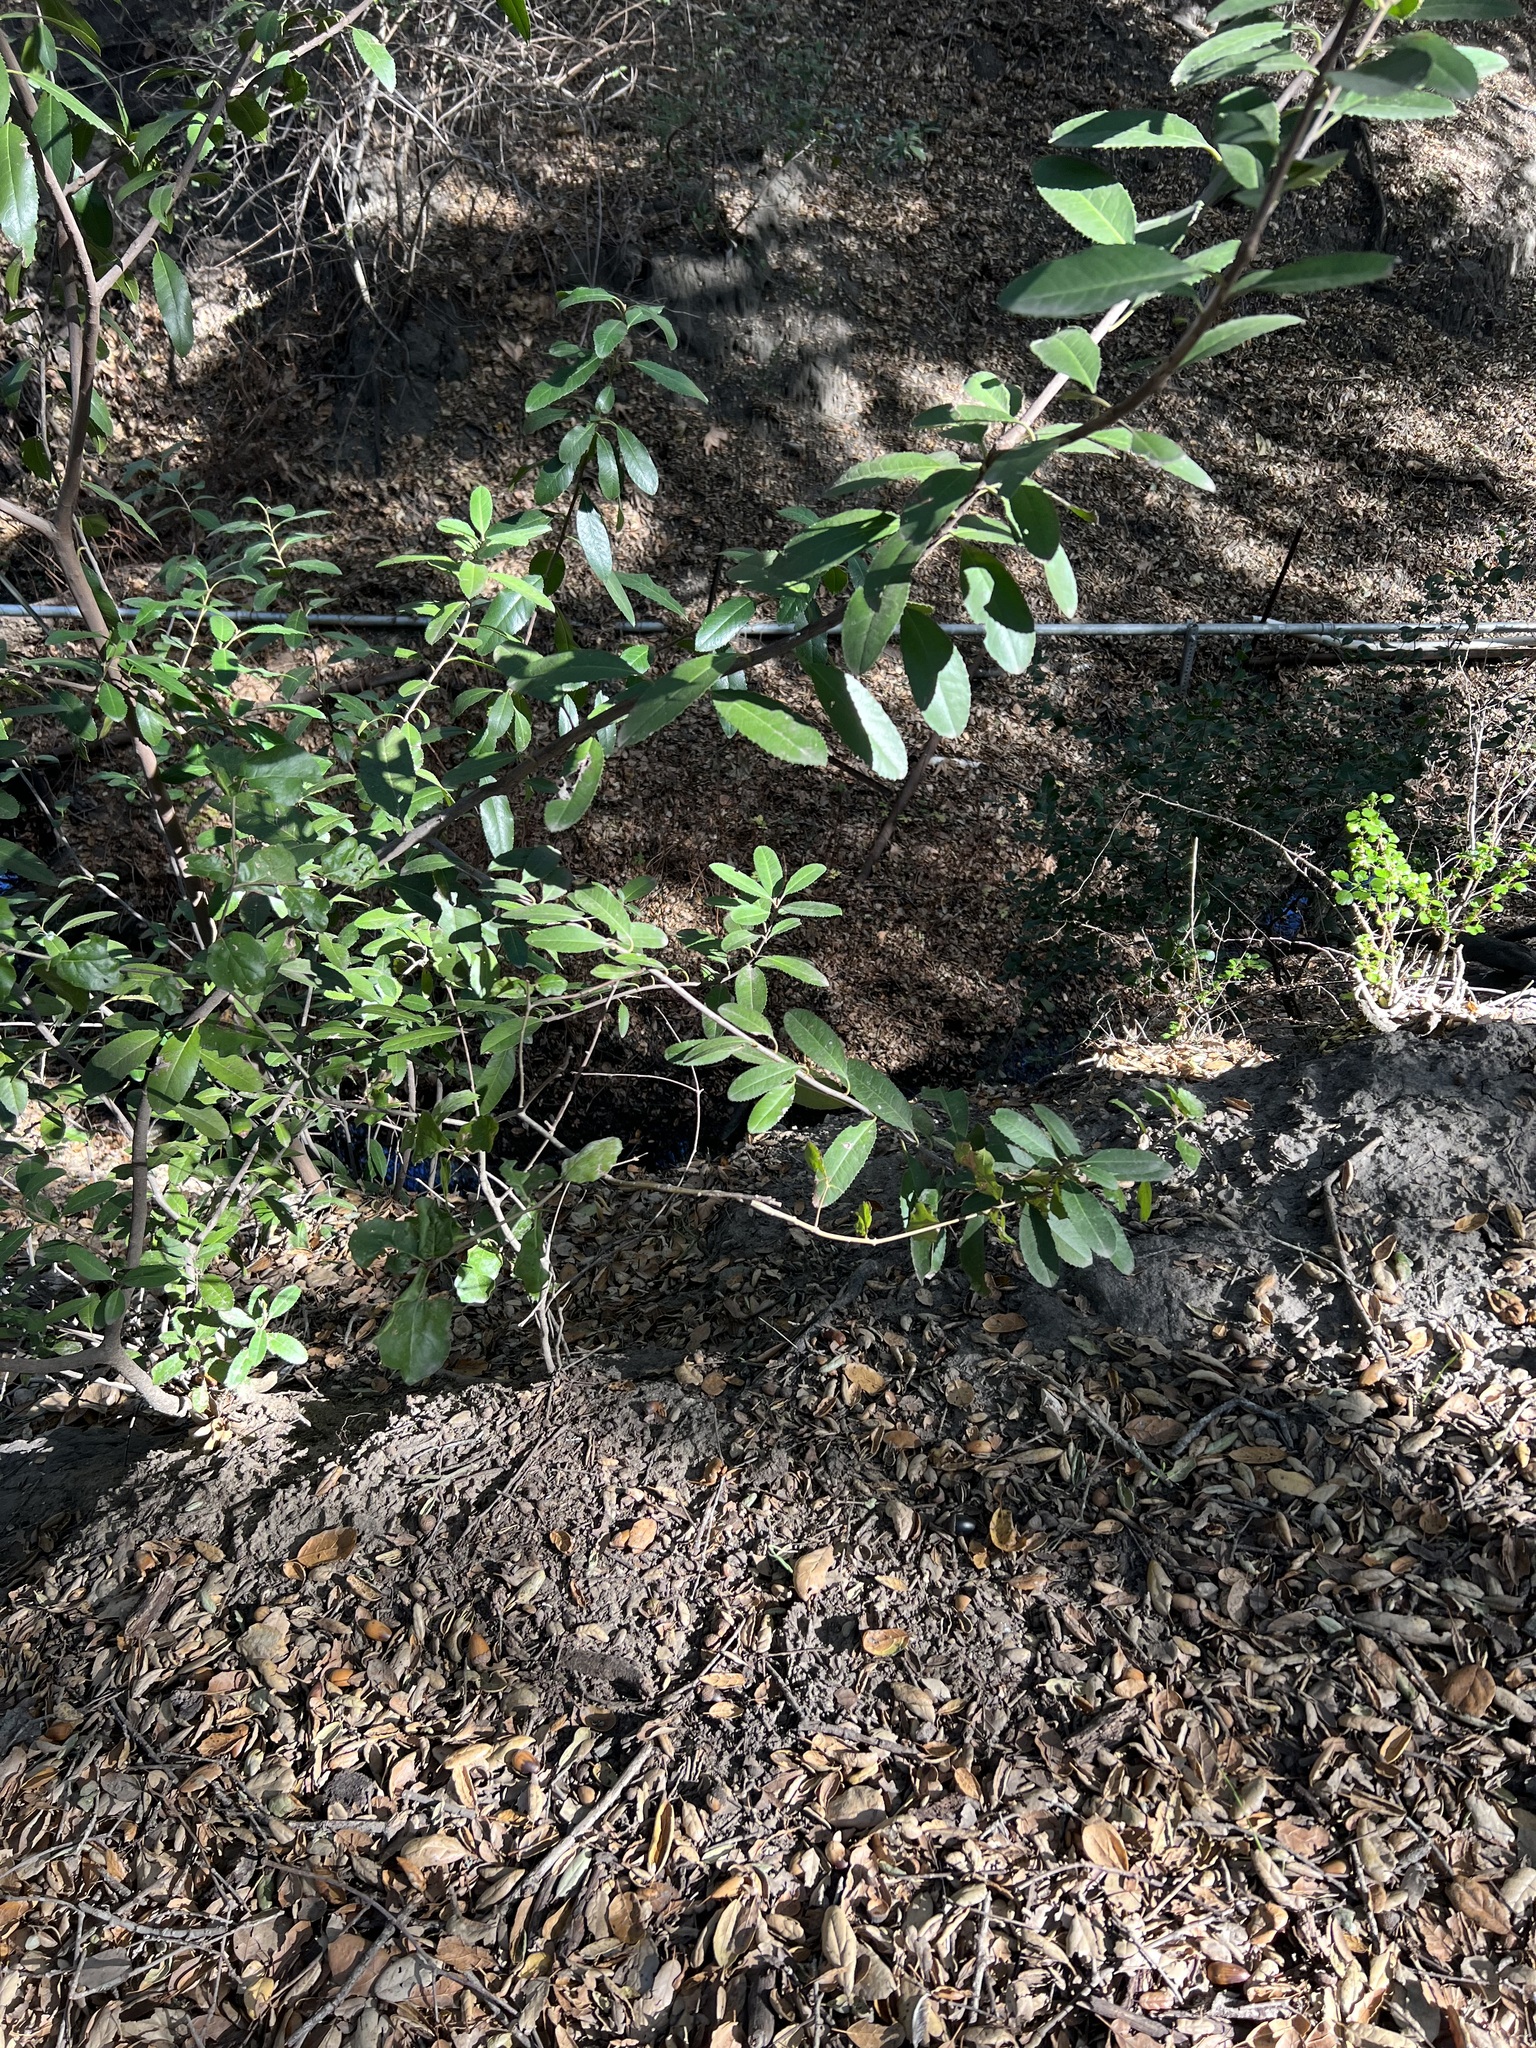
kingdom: Plantae
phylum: Tracheophyta
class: Magnoliopsida
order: Rosales
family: Rosaceae
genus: Heteromeles
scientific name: Heteromeles arbutifolia
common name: California-holly
